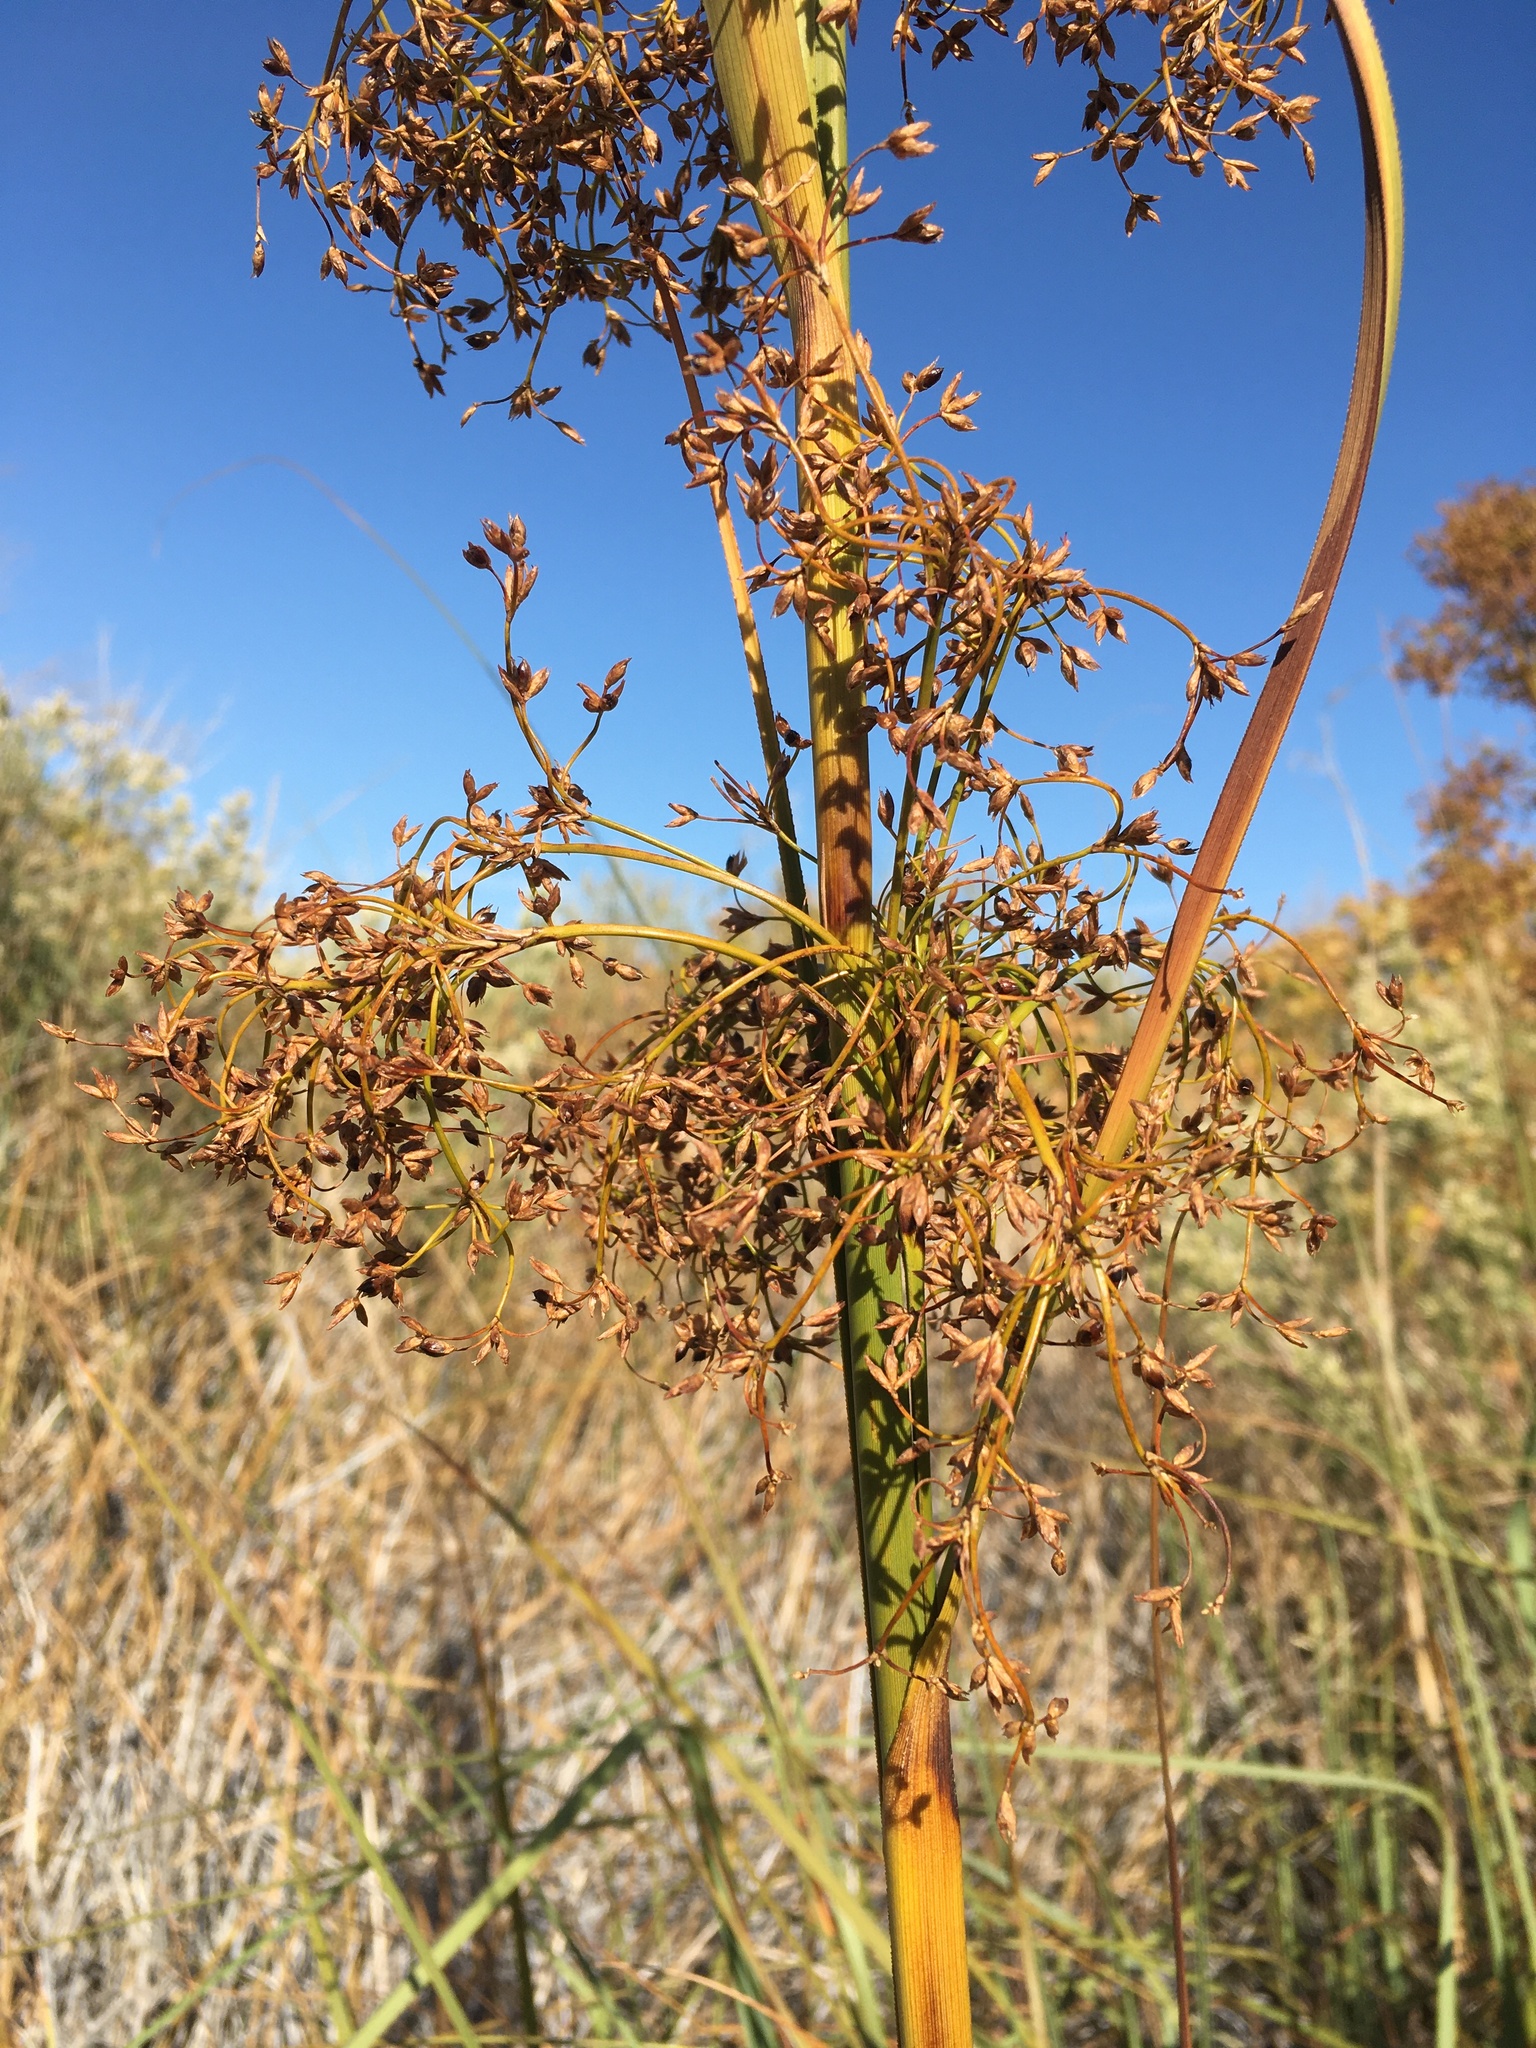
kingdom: Plantae
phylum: Tracheophyta
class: Liliopsida
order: Poales
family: Cyperaceae
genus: Cladium
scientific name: Cladium mariscus
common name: Great fen-sedge
